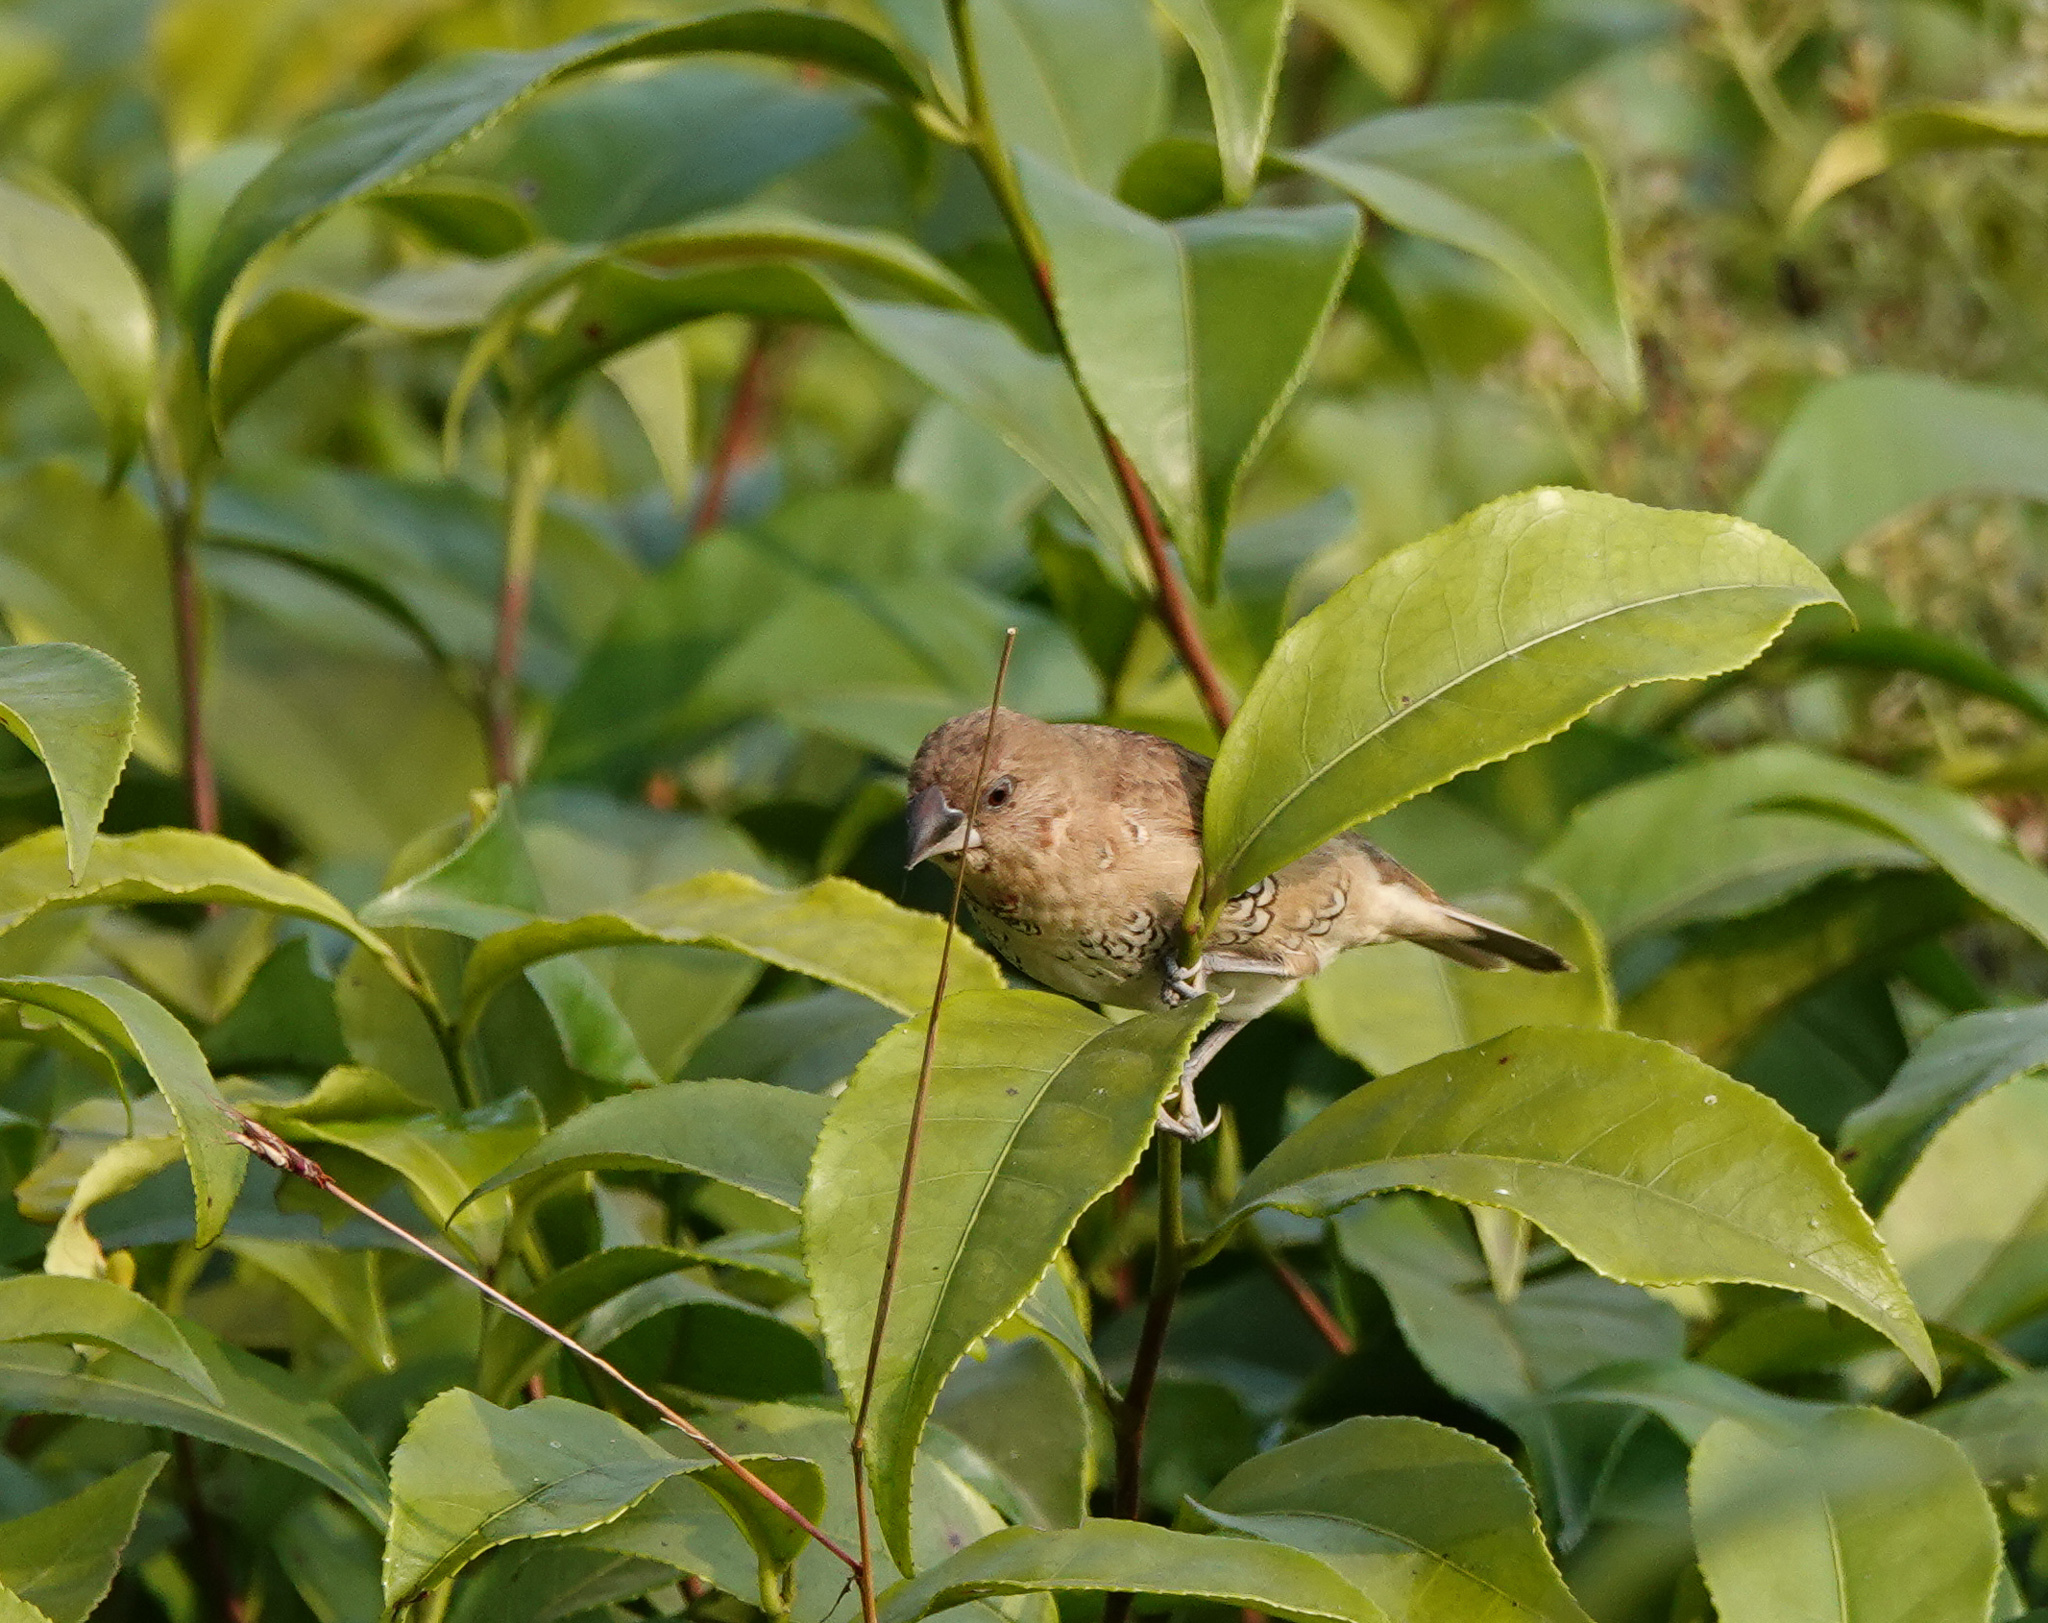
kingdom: Animalia
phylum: Chordata
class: Aves
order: Passeriformes
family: Estrildidae
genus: Lonchura
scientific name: Lonchura punctulata
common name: Scaly-breasted munia
